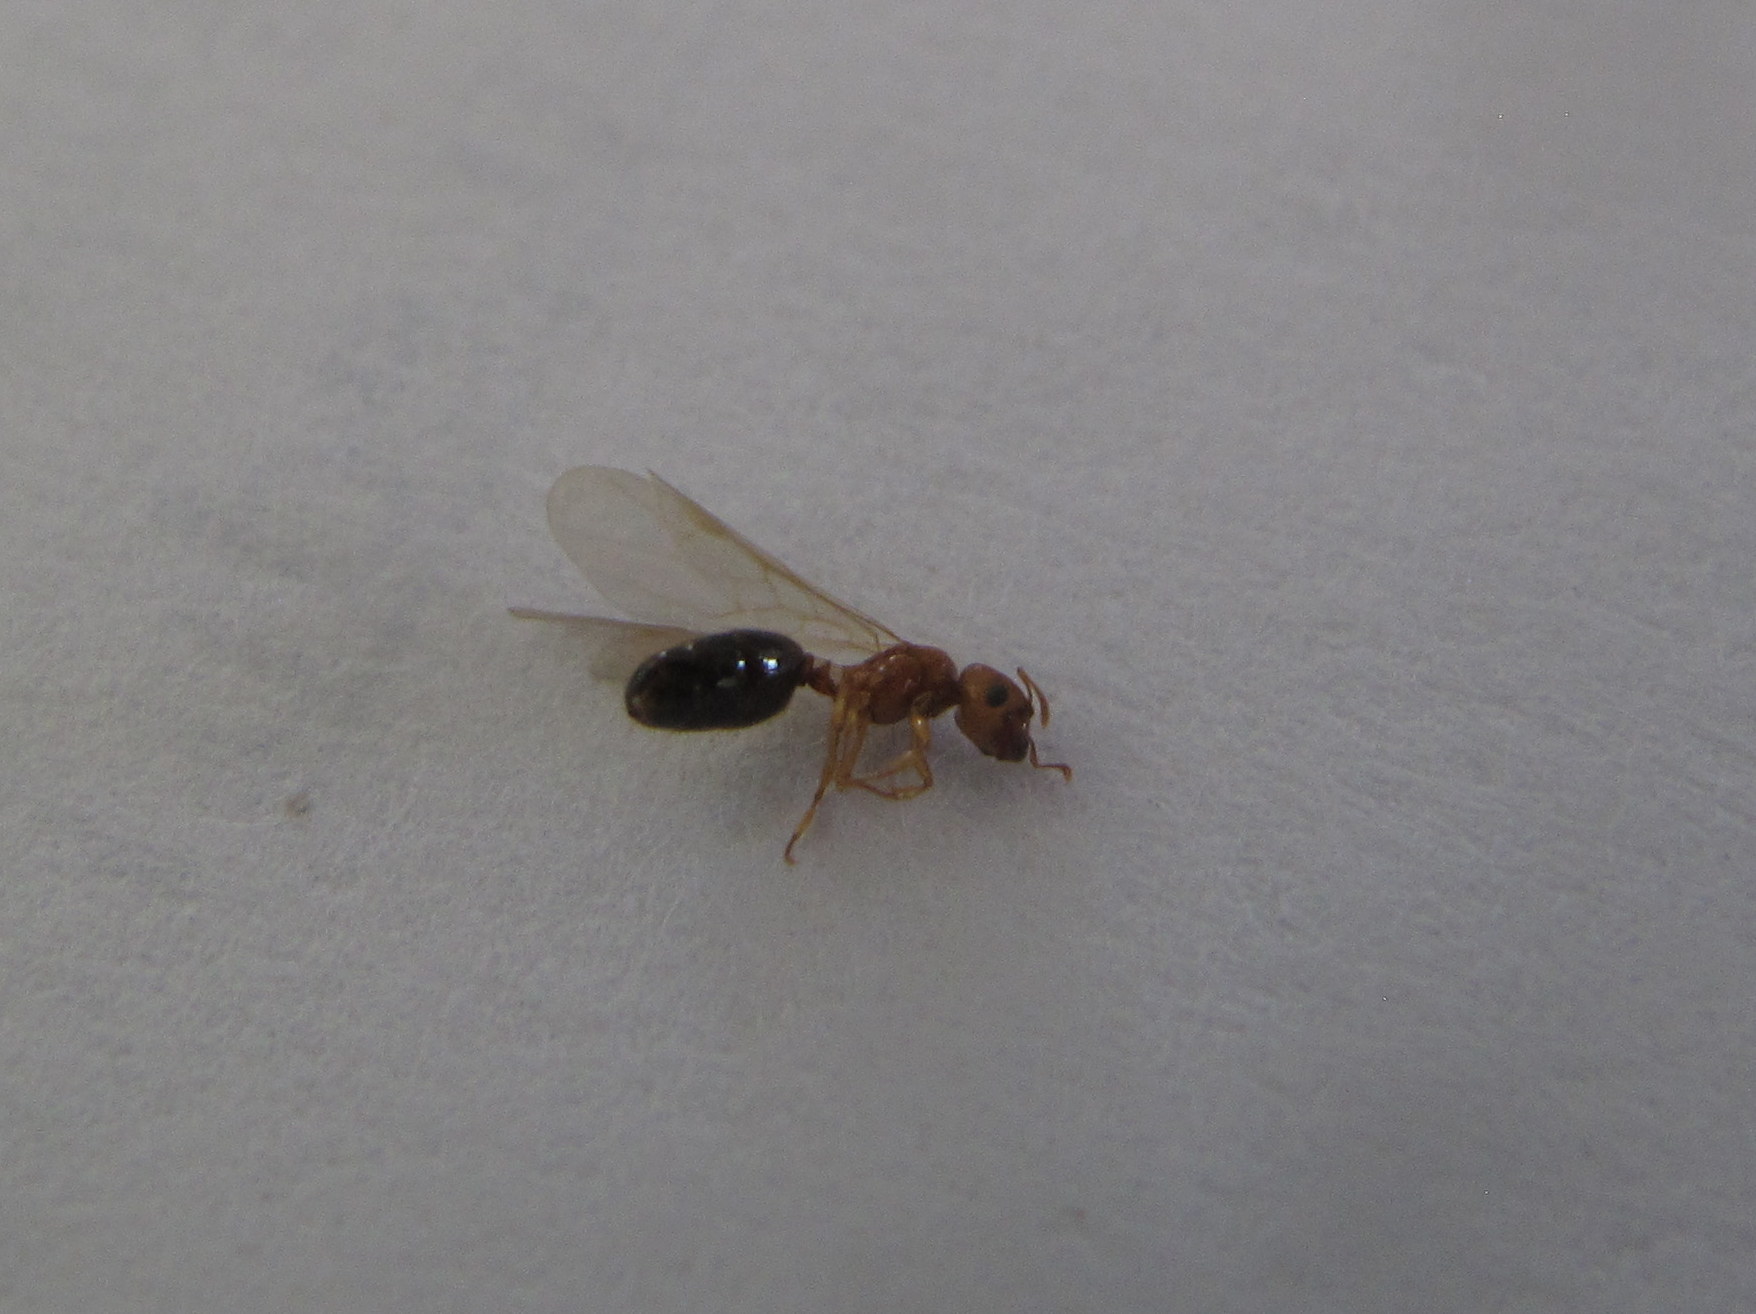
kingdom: Animalia
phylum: Arthropoda
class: Insecta
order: Hymenoptera
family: Formicidae
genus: Pheidole
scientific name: Pheidole parva
